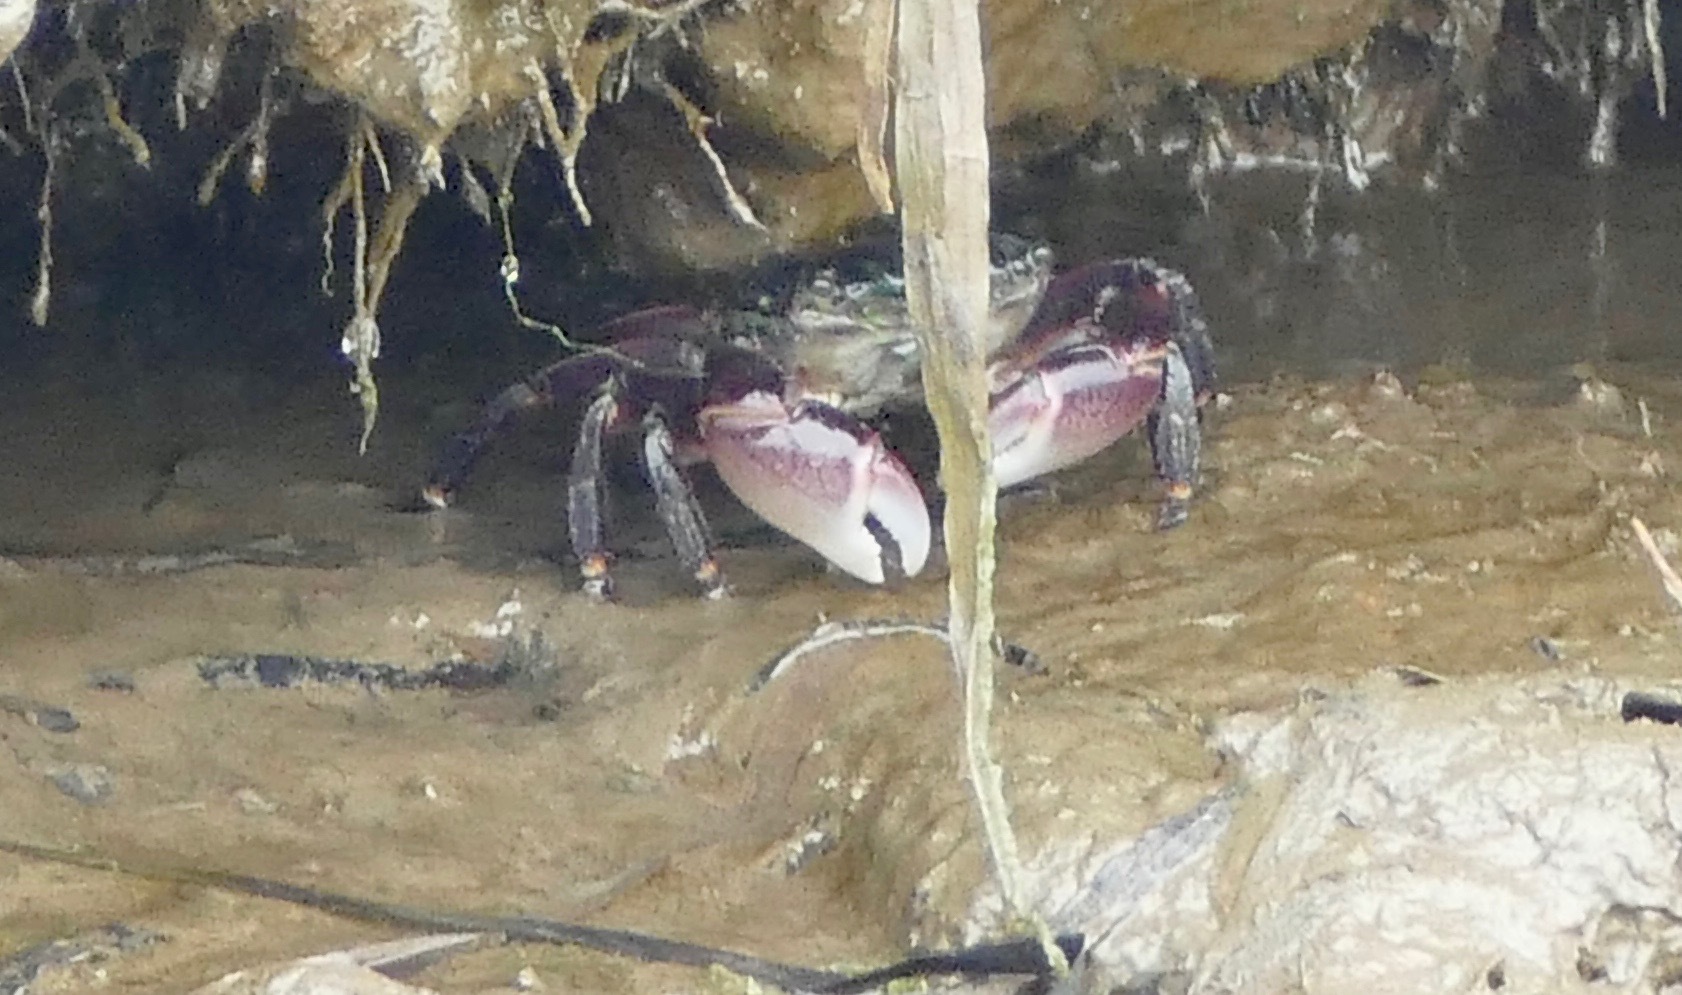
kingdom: Animalia
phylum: Arthropoda
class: Malacostraca
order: Decapoda
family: Grapsidae
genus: Pachygrapsus
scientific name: Pachygrapsus crassipes
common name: Striped shore crab
